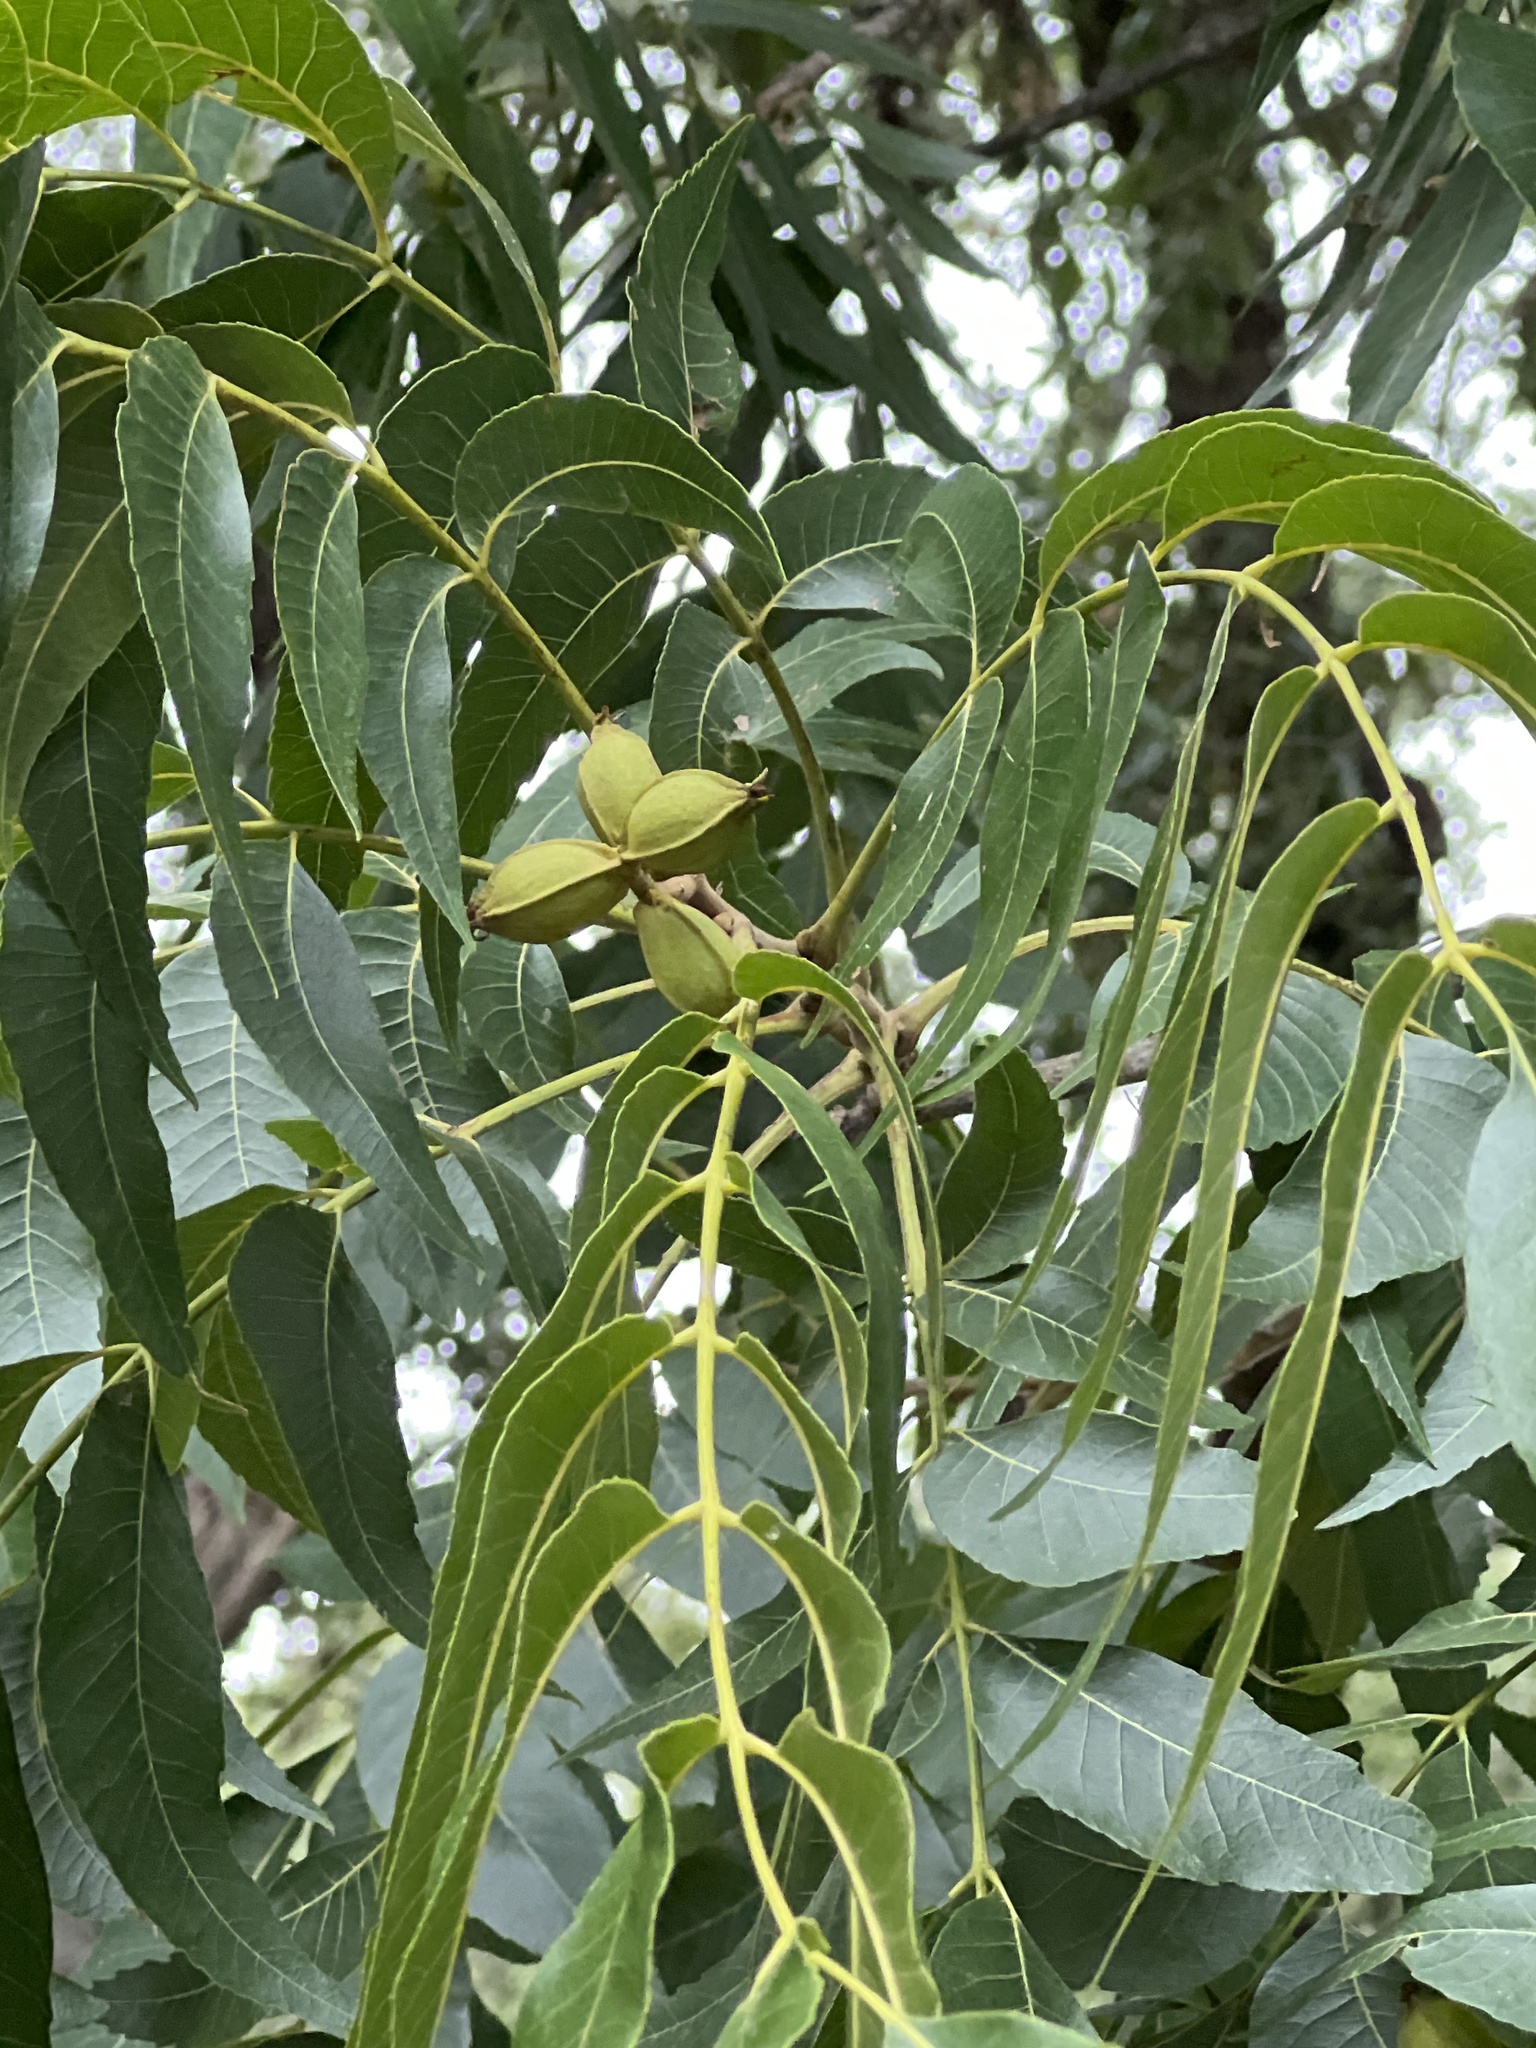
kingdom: Plantae
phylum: Tracheophyta
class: Magnoliopsida
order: Fagales
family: Juglandaceae
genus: Carya
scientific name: Carya illinoinensis
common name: Pecan
